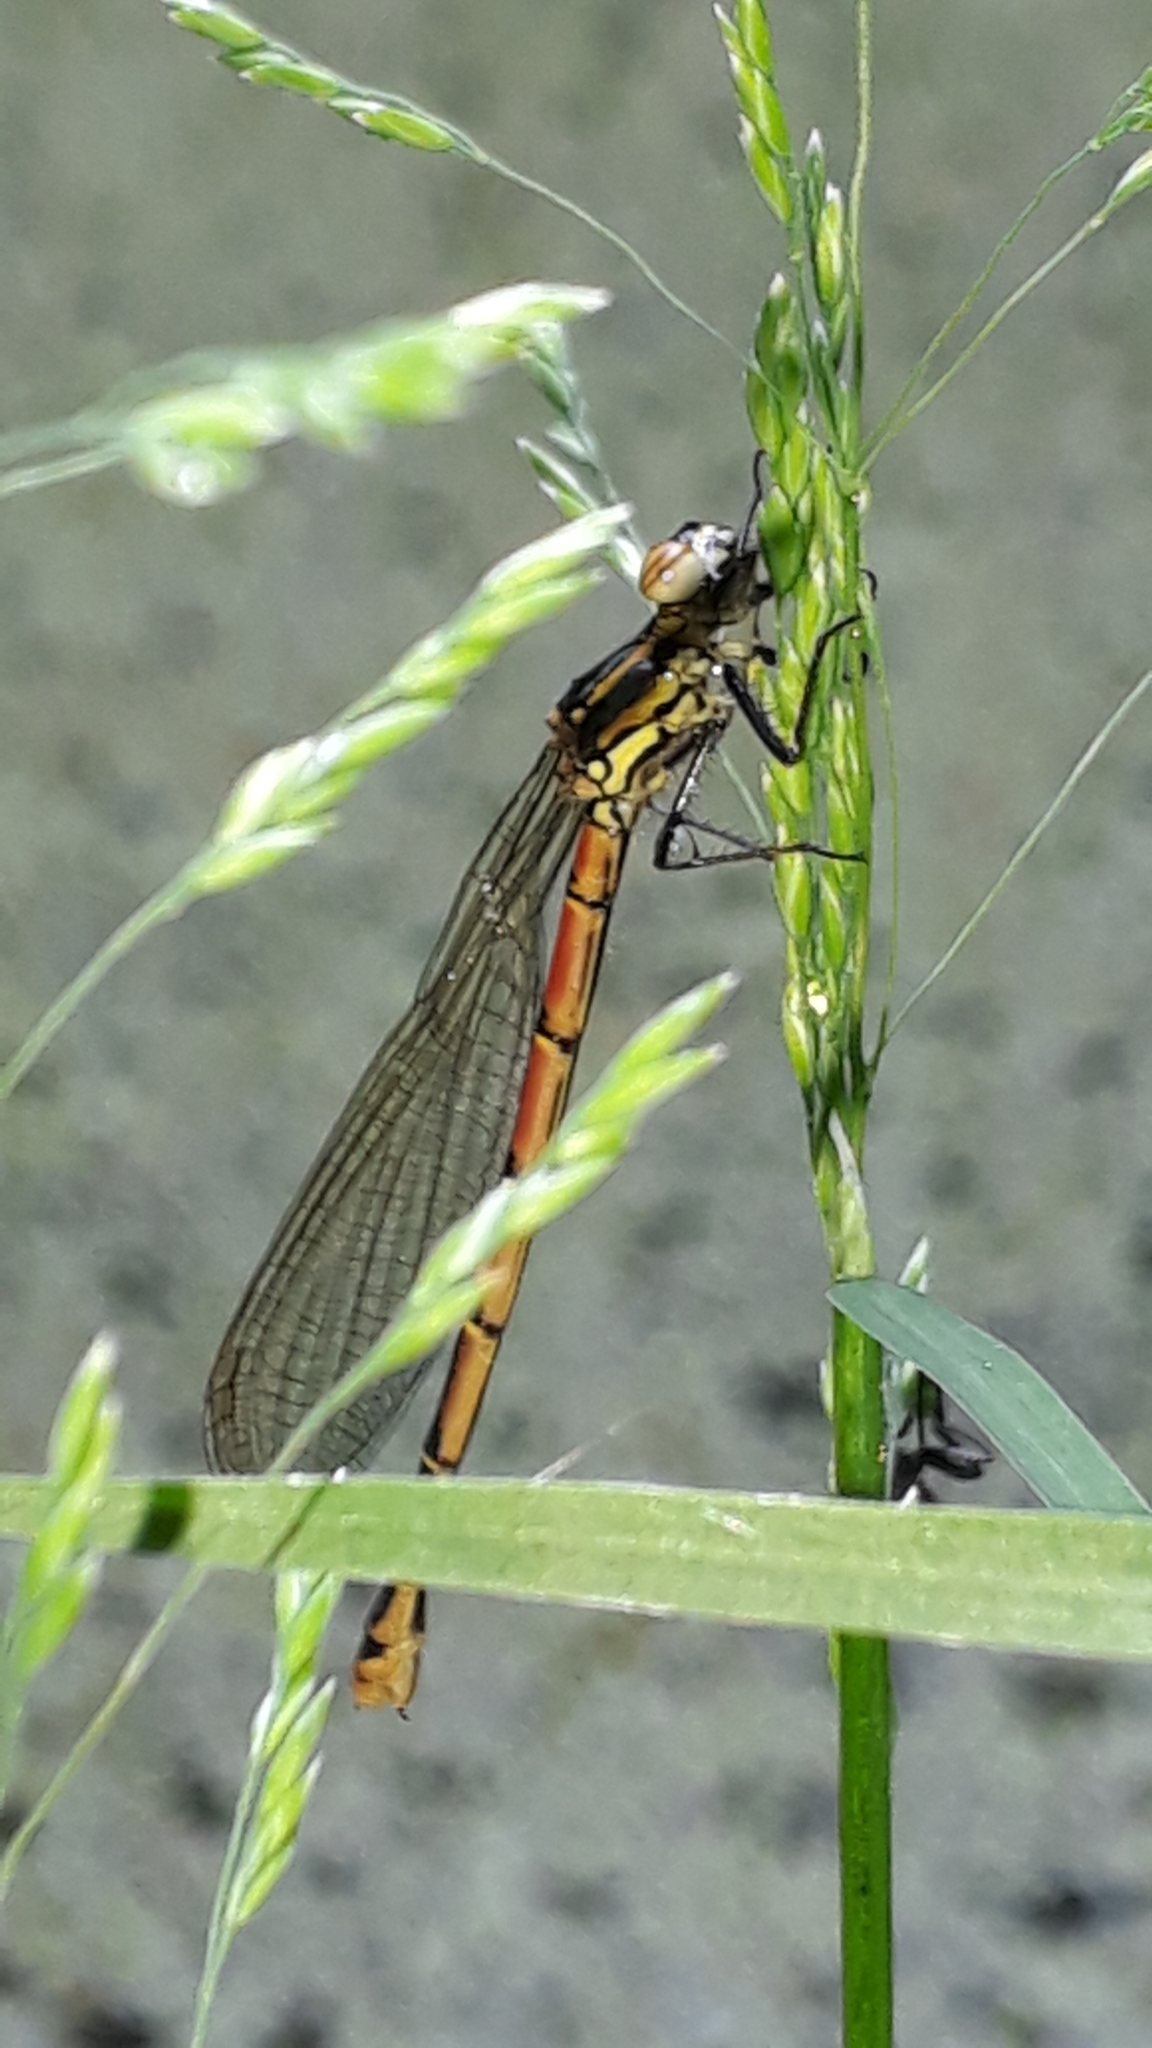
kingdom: Animalia
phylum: Arthropoda
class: Insecta
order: Odonata
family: Coenagrionidae
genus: Pyrrhosoma
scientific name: Pyrrhosoma nymphula
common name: Large red damsel
